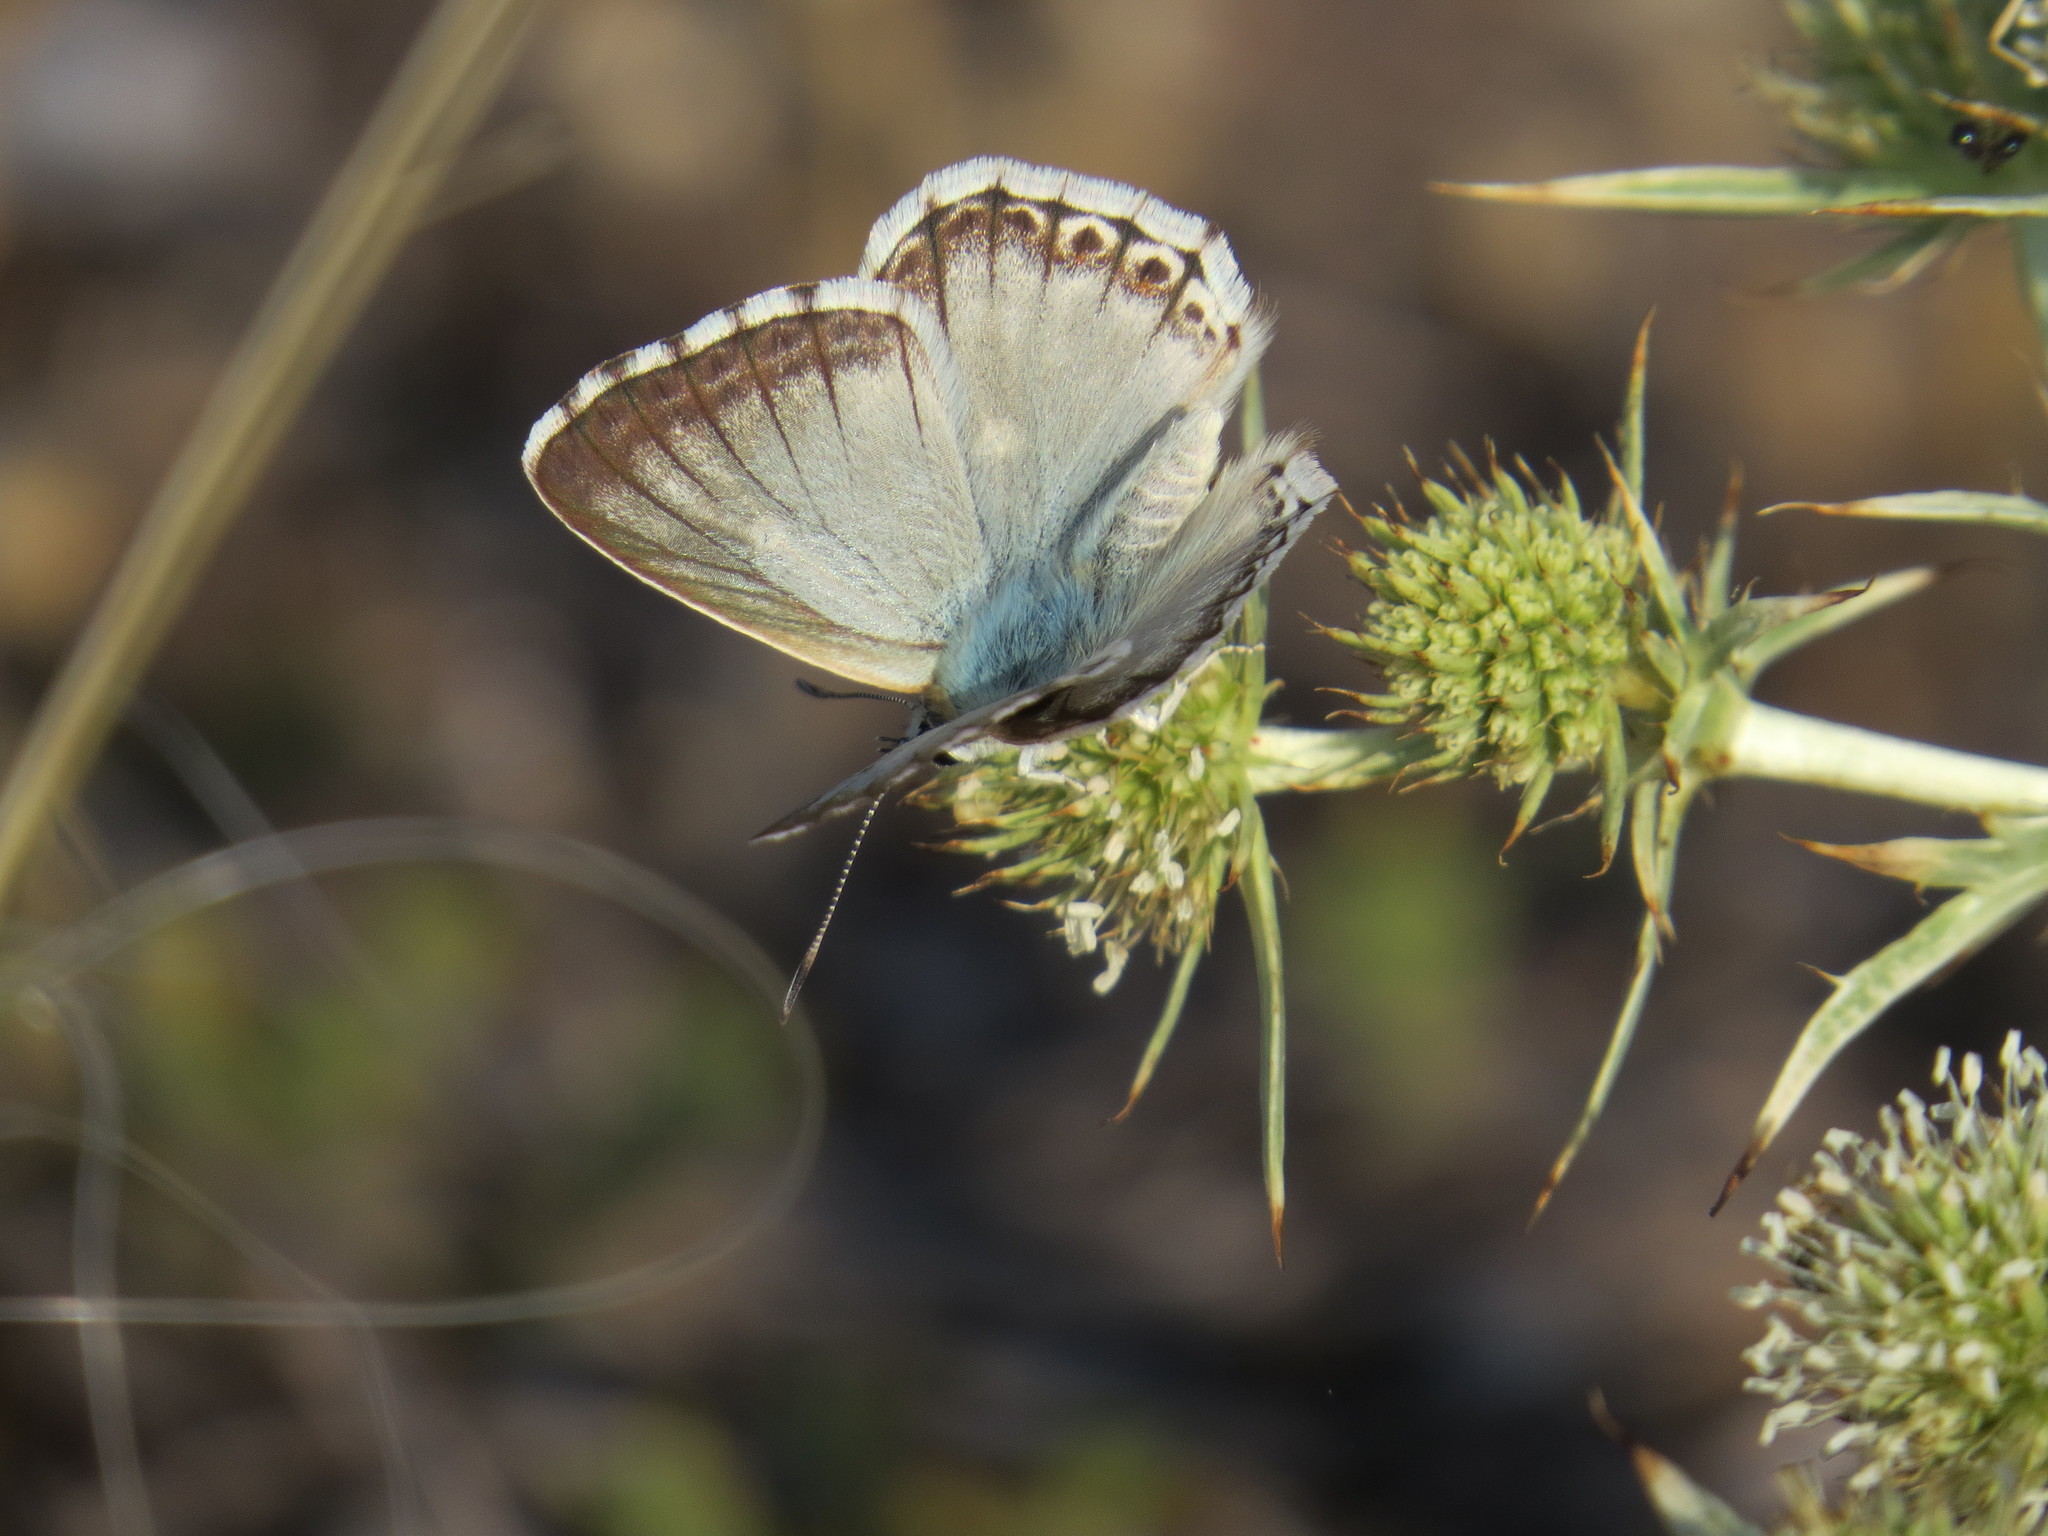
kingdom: Animalia
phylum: Arthropoda
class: Insecta
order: Lepidoptera
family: Lycaenidae
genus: Lysandra
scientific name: Lysandra albicans
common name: Spanish chalkhill blue
